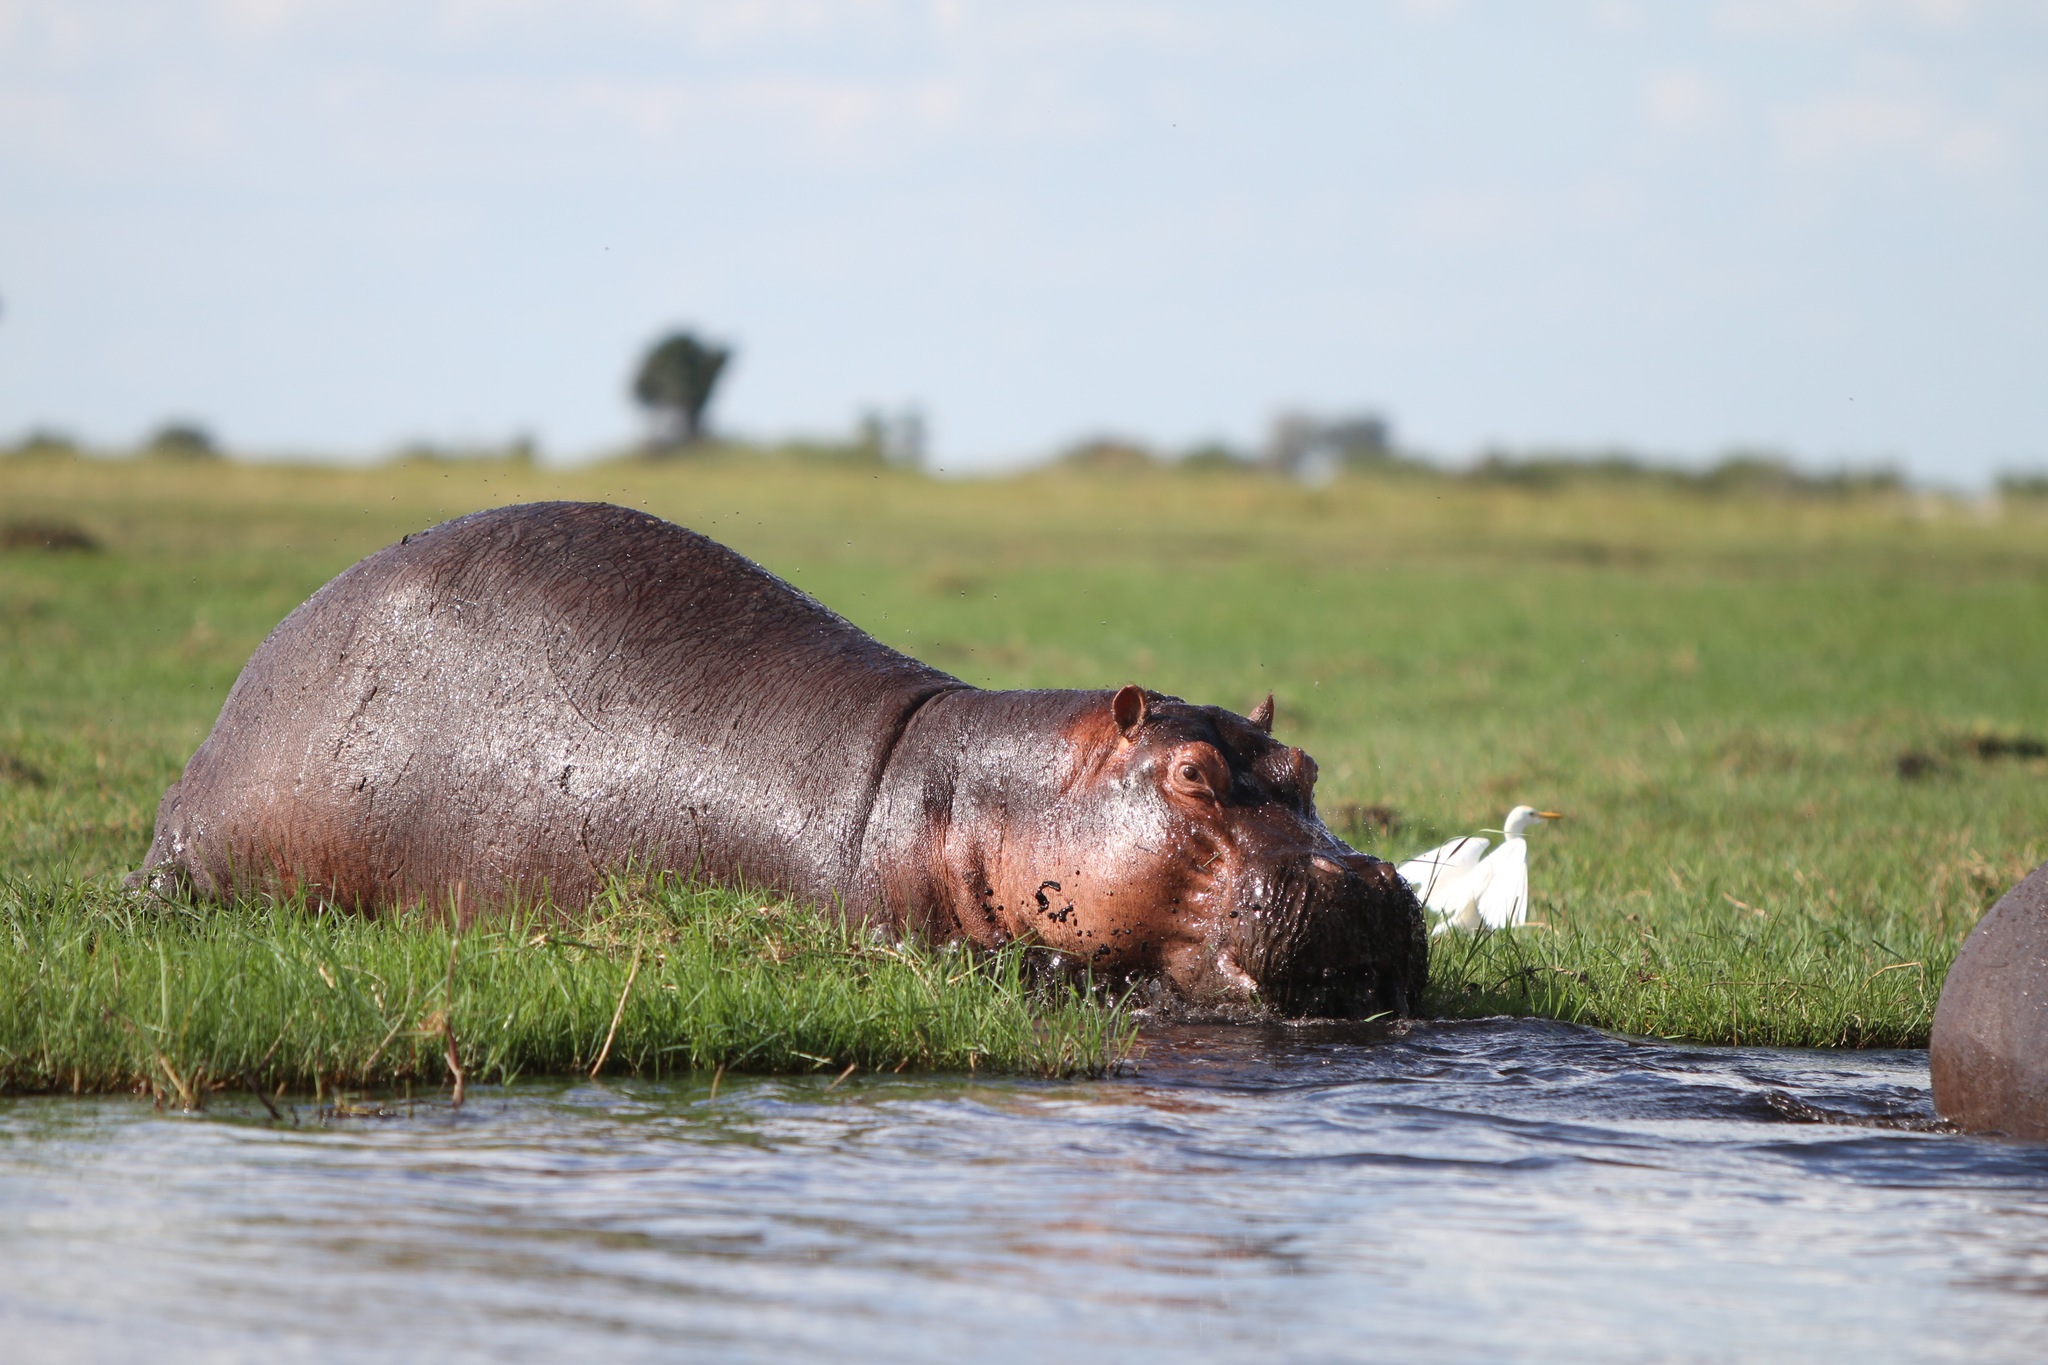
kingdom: Animalia
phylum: Chordata
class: Mammalia
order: Artiodactyla
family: Hippopotamidae
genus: Hippopotamus
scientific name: Hippopotamus amphibius
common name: Common hippopotamus
